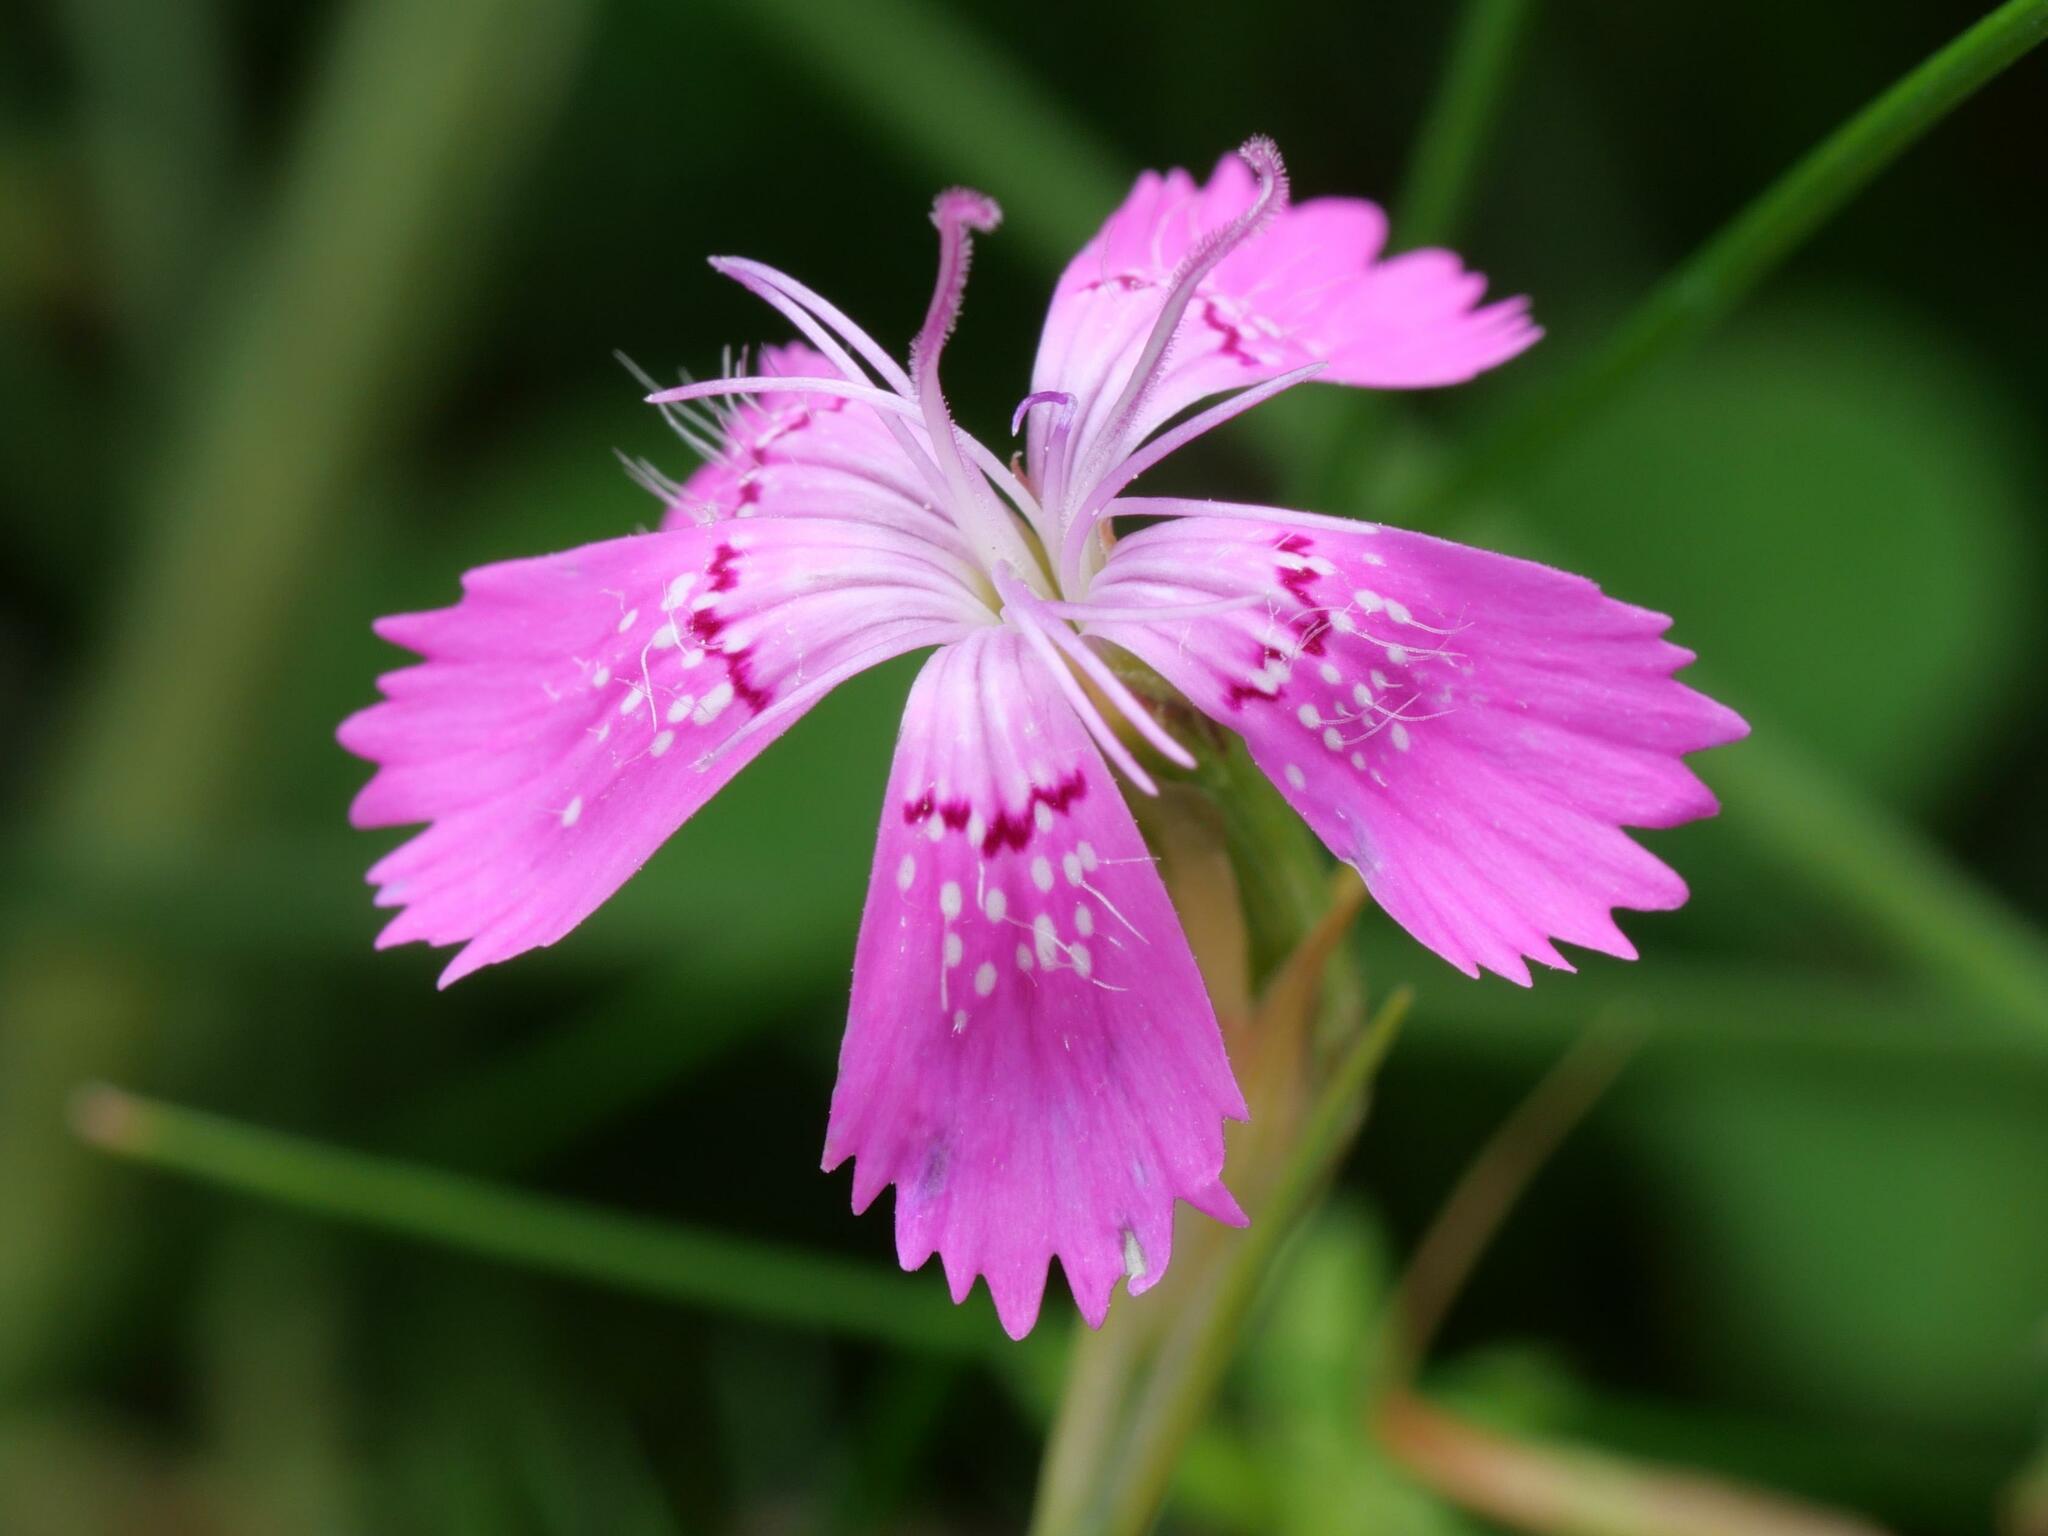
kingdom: Plantae
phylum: Tracheophyta
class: Magnoliopsida
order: Caryophyllales
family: Caryophyllaceae
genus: Dianthus
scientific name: Dianthus deltoides
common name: Maiden pink
